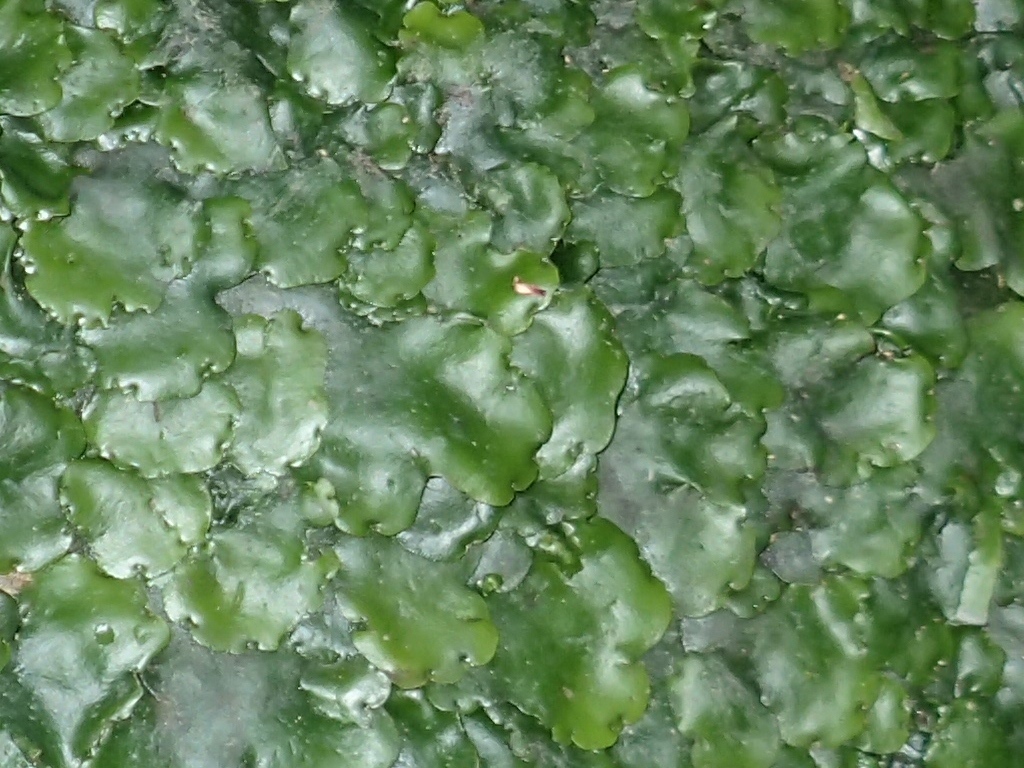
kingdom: Plantae
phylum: Marchantiophyta
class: Marchantiopsida
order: Marchantiales
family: Monocleaceae
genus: Monoclea
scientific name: Monoclea forsteri
